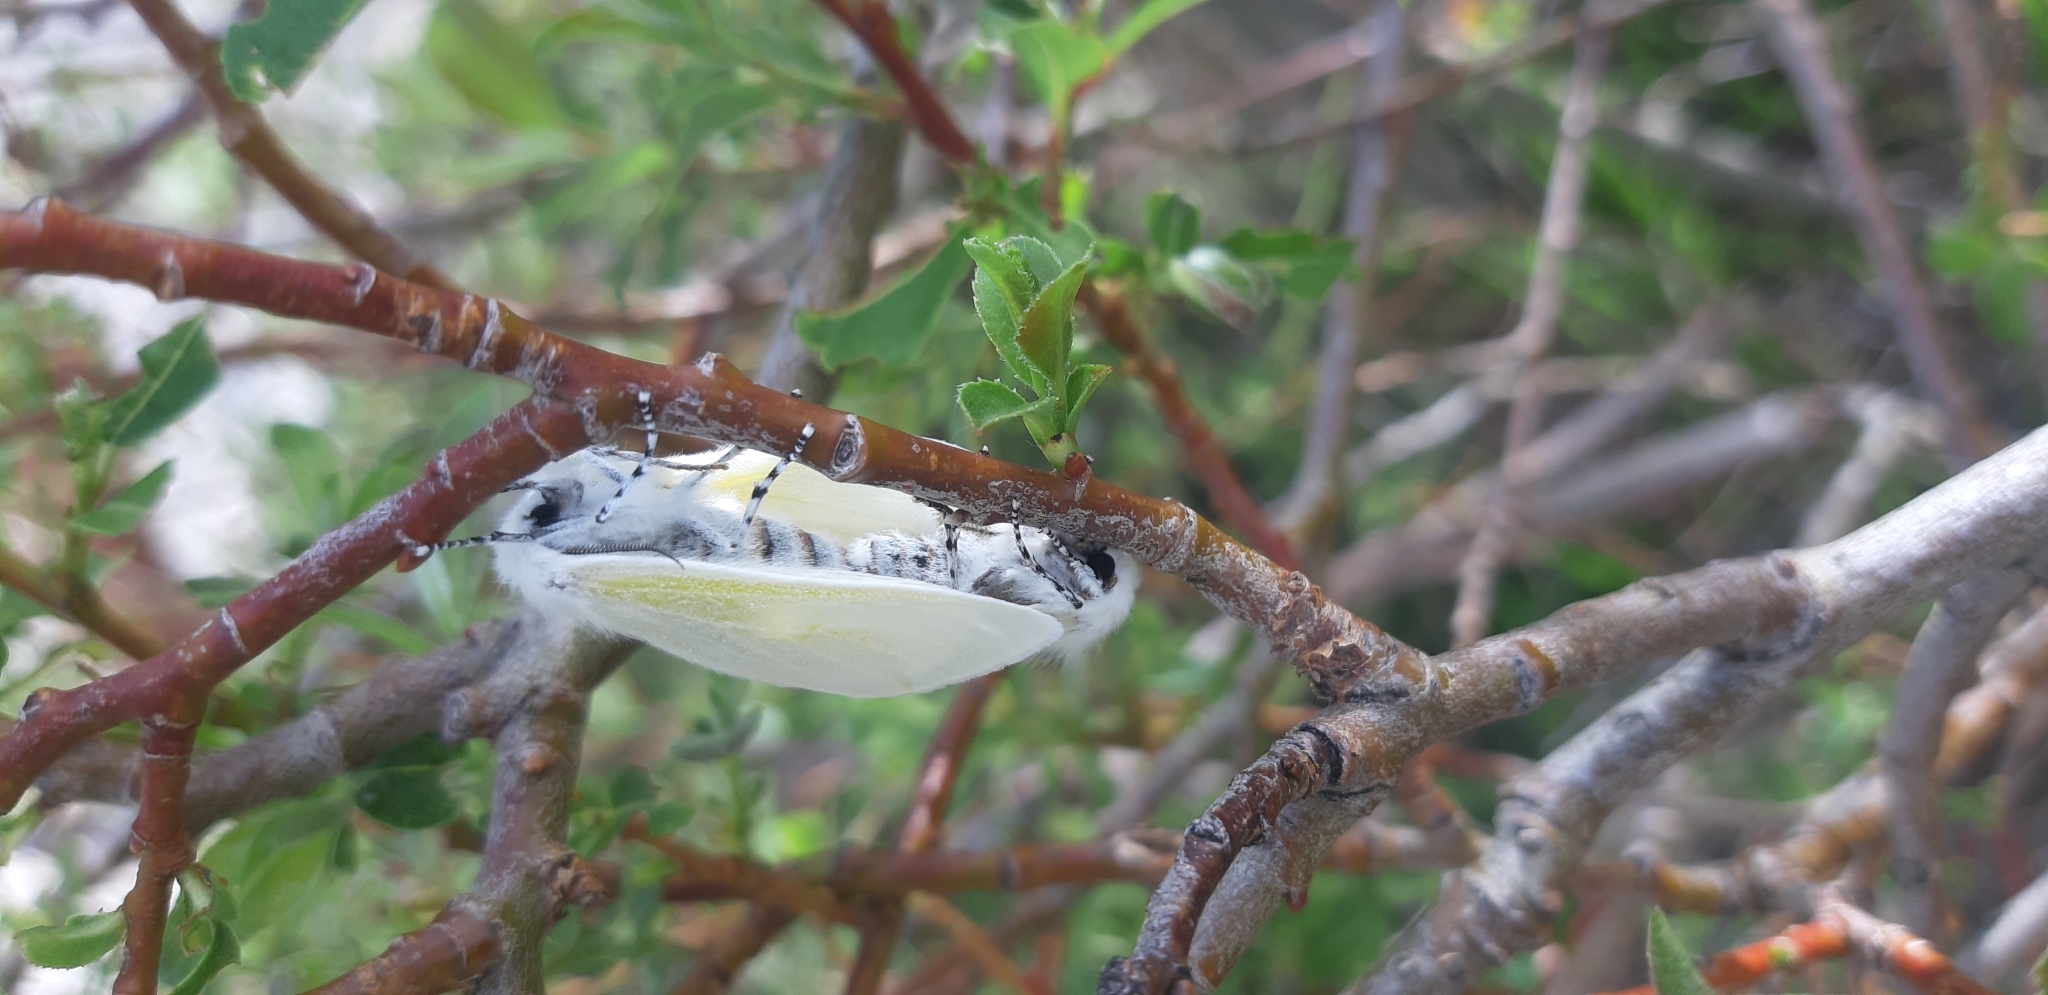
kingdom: Animalia
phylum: Arthropoda
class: Insecta
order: Lepidoptera
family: Erebidae
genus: Leucoma
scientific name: Leucoma salicis
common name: White satin moth
